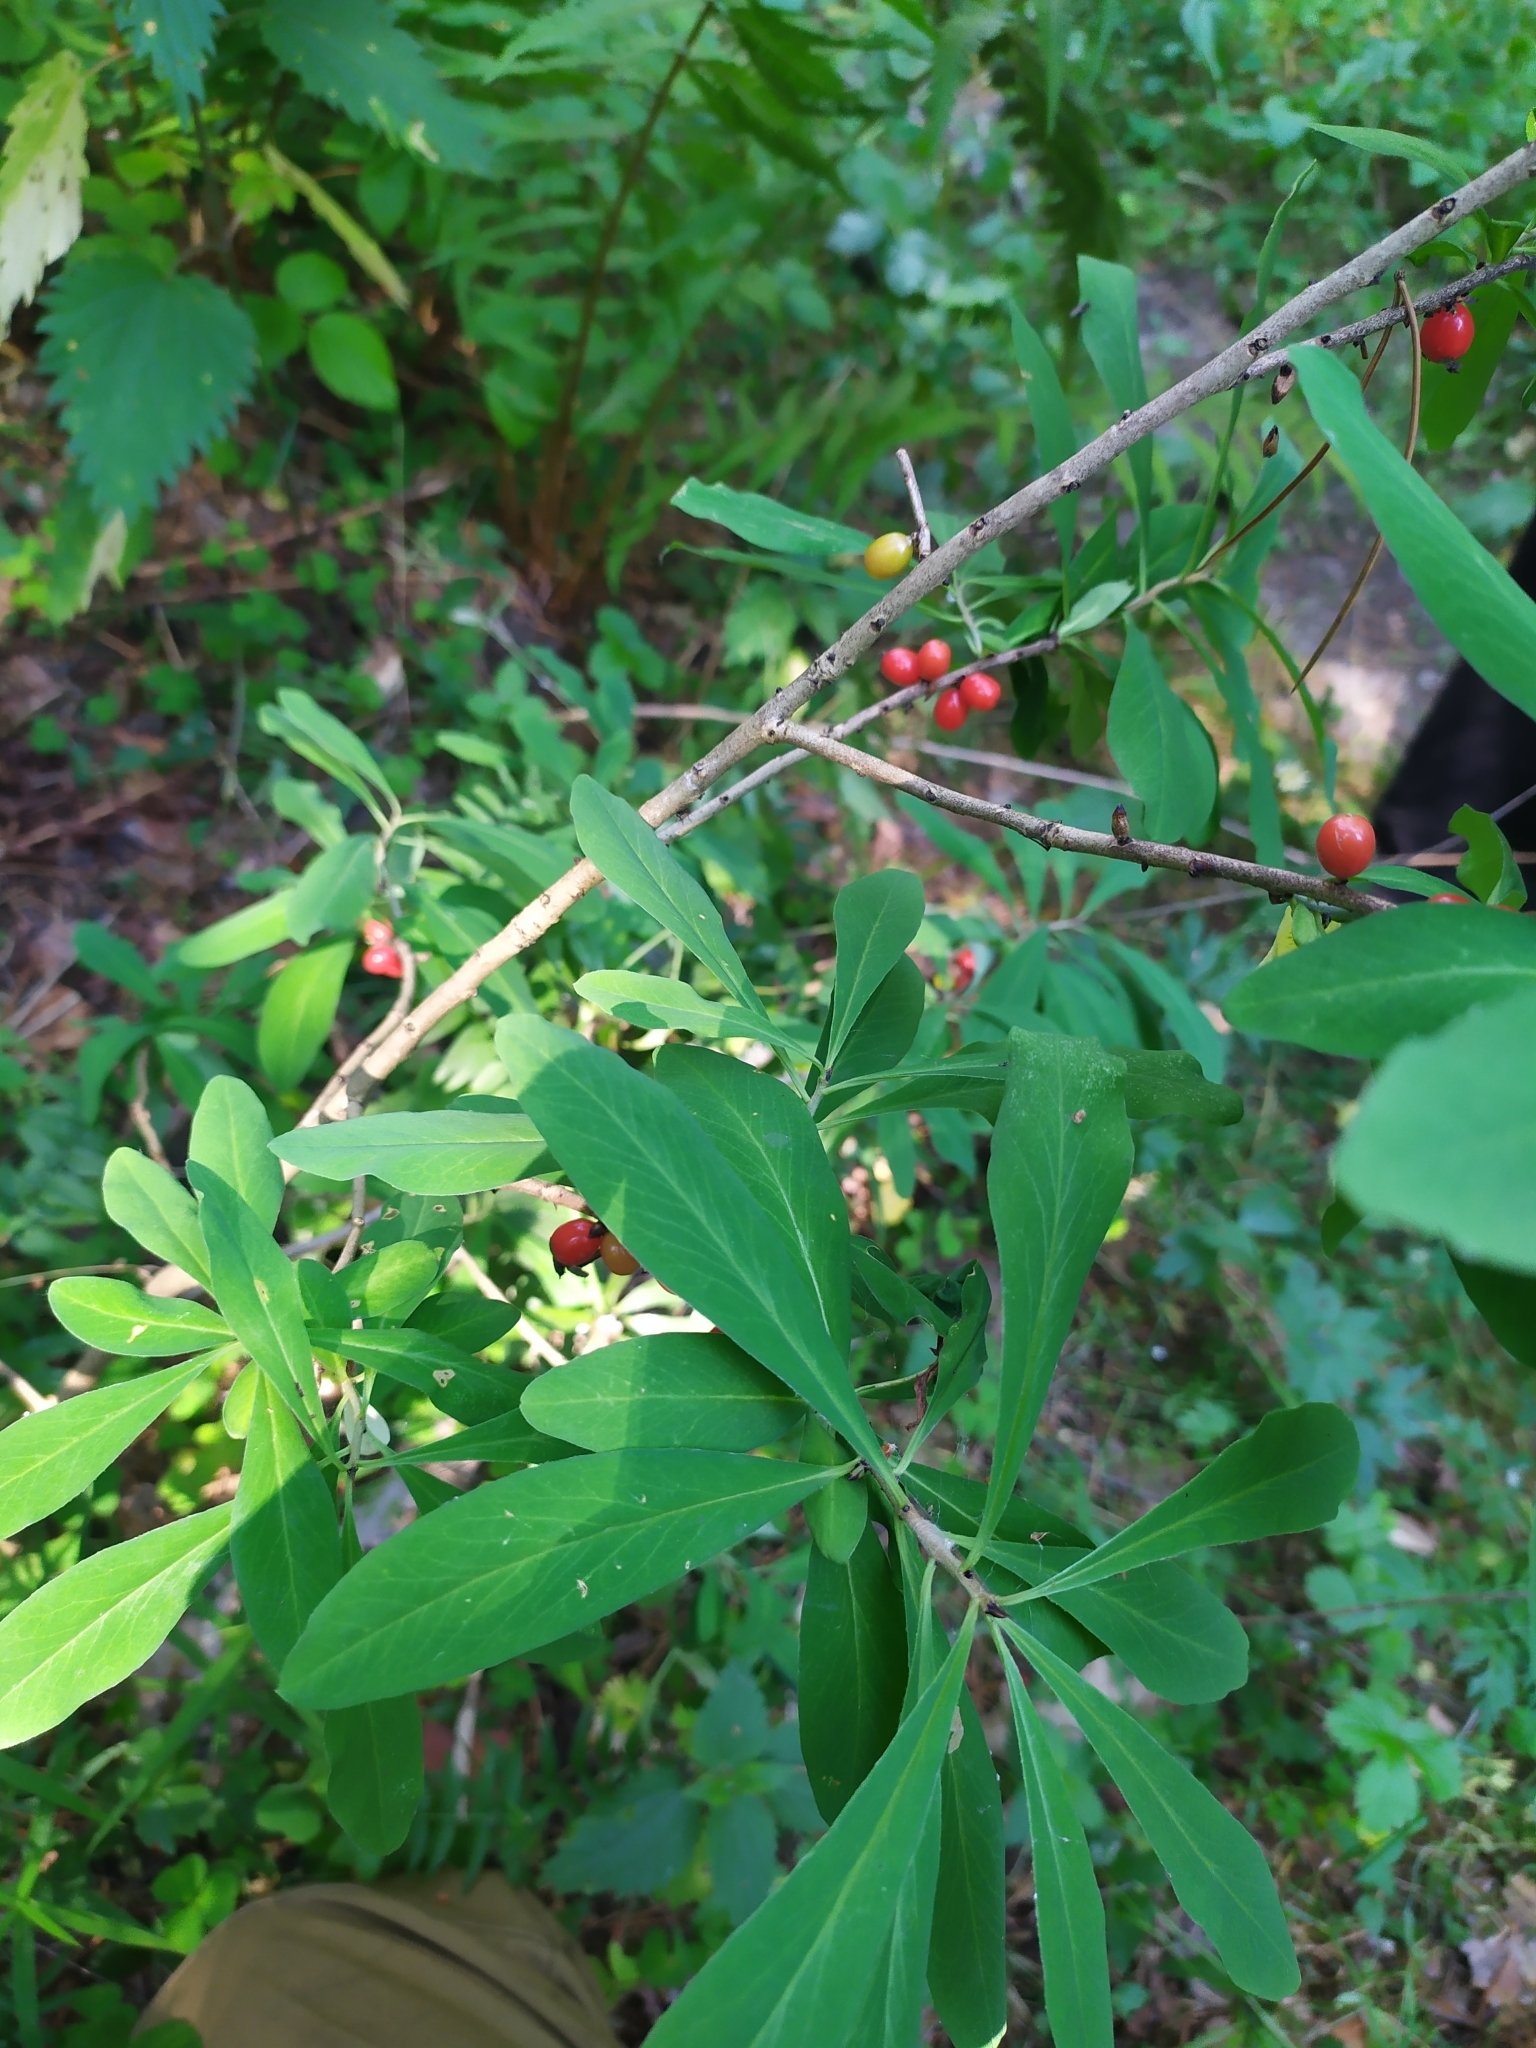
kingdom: Plantae
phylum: Tracheophyta
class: Magnoliopsida
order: Malvales
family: Thymelaeaceae
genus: Daphne
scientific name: Daphne mezereum
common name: Mezereon
